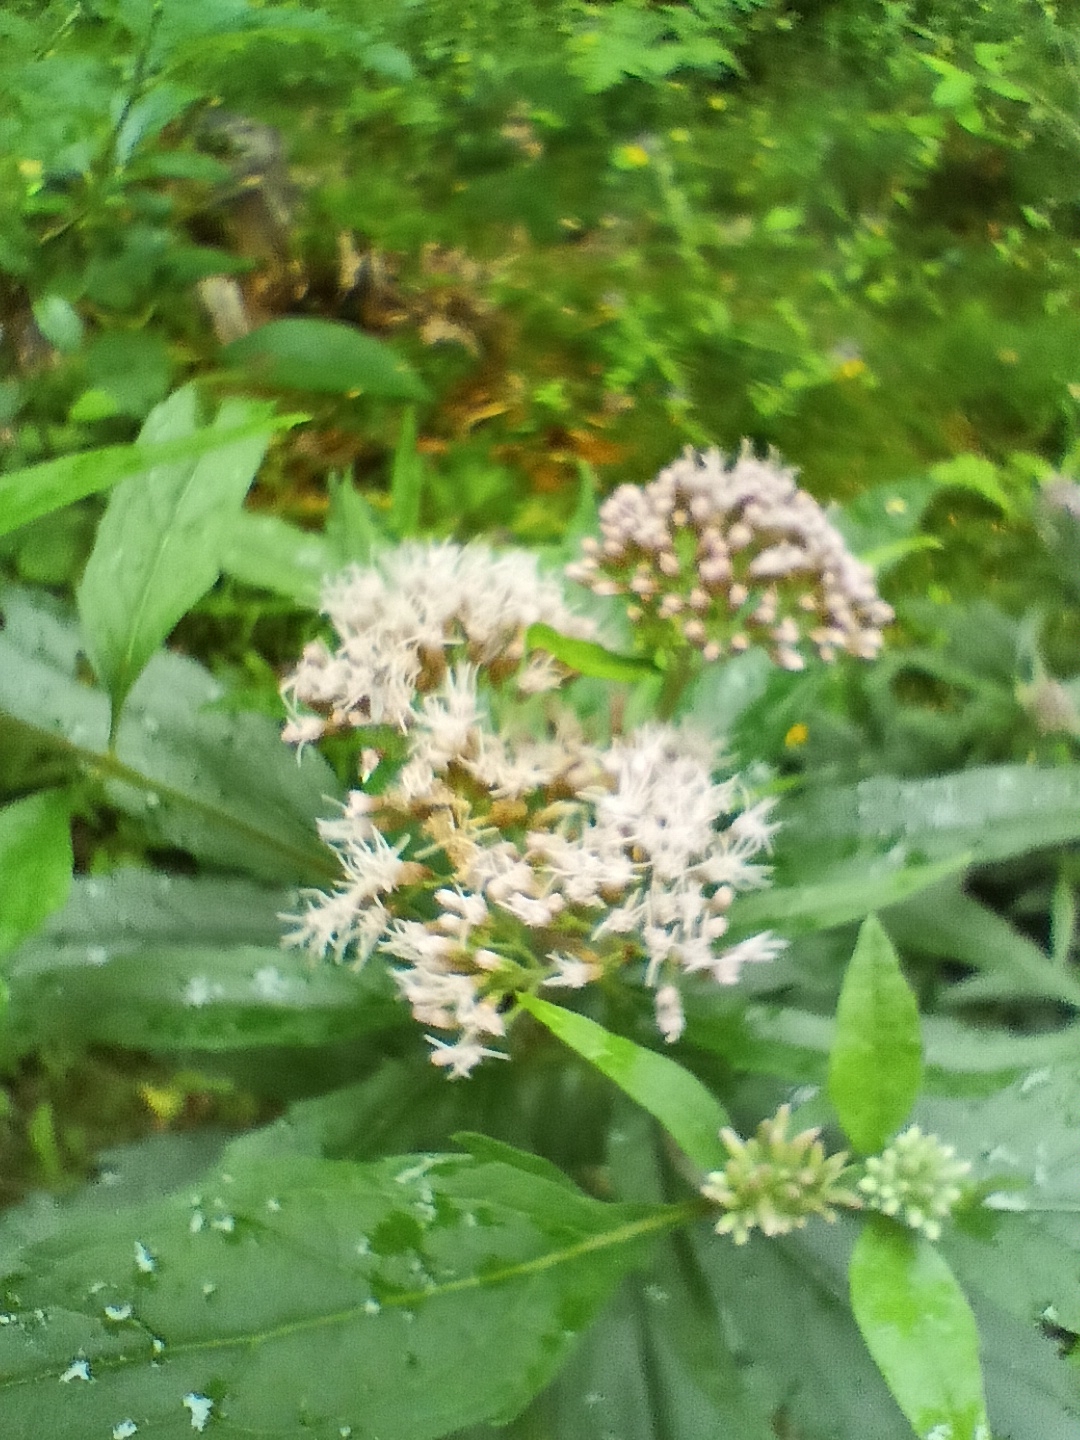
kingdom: Plantae
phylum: Tracheophyta
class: Magnoliopsida
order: Asterales
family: Asteraceae
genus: Eupatorium
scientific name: Eupatorium cannabinum
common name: Hemp-agrimony
